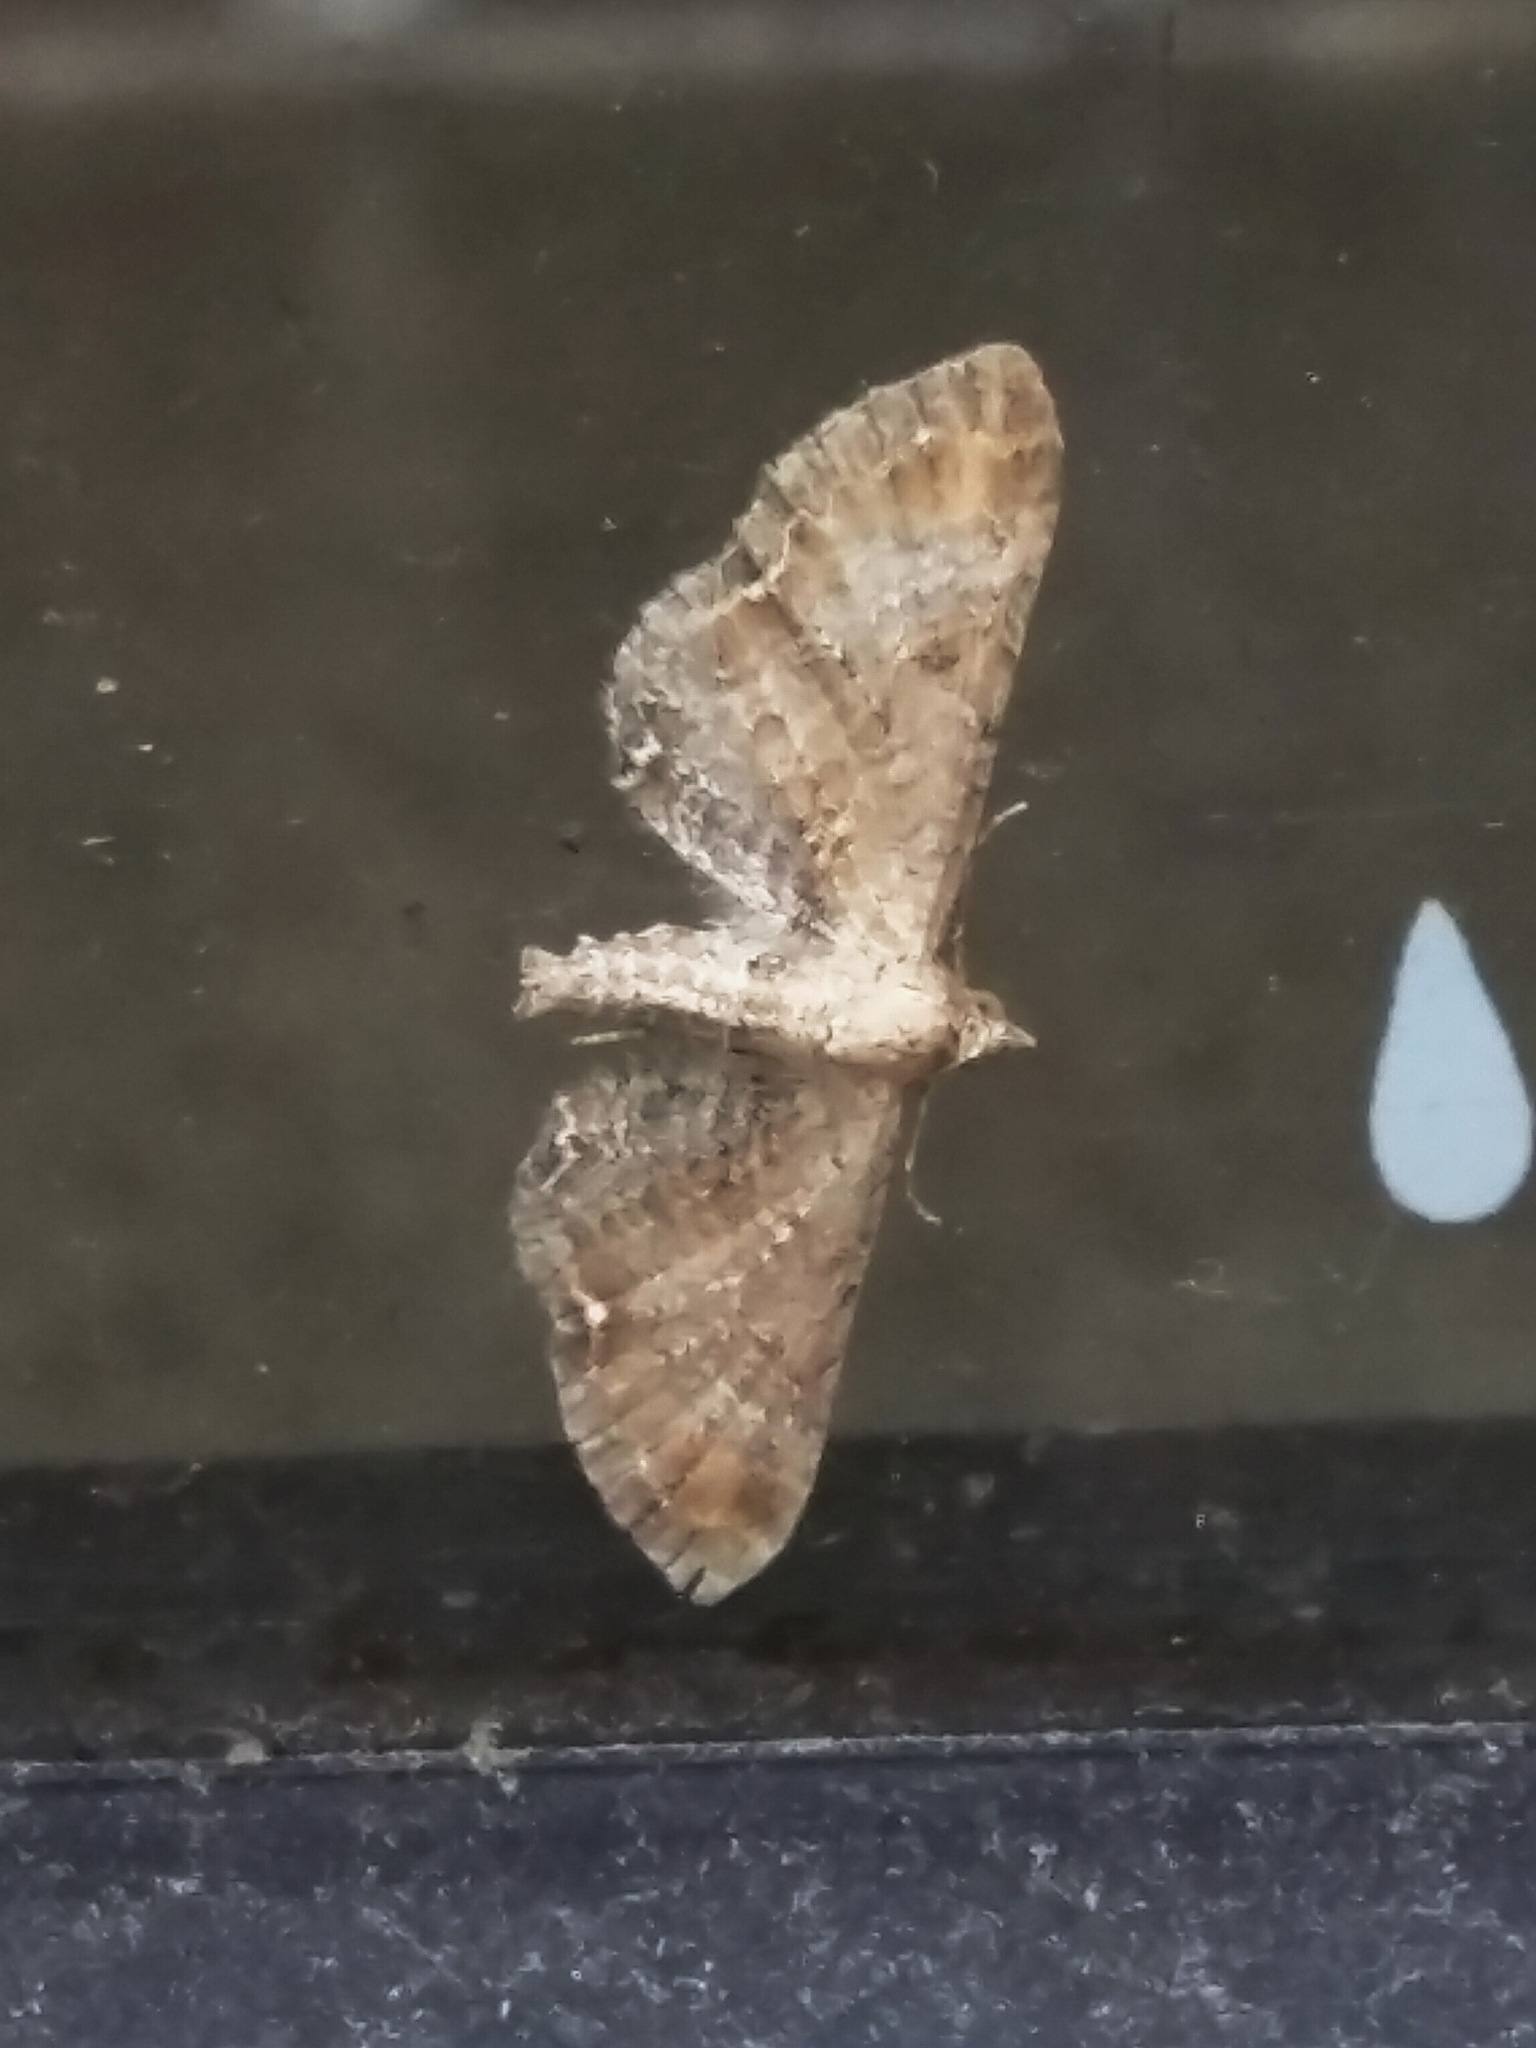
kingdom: Animalia
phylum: Arthropoda
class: Insecta
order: Lepidoptera
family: Geometridae
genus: Eupithecia
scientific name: Eupithecia simpliciata
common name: Plain pug
